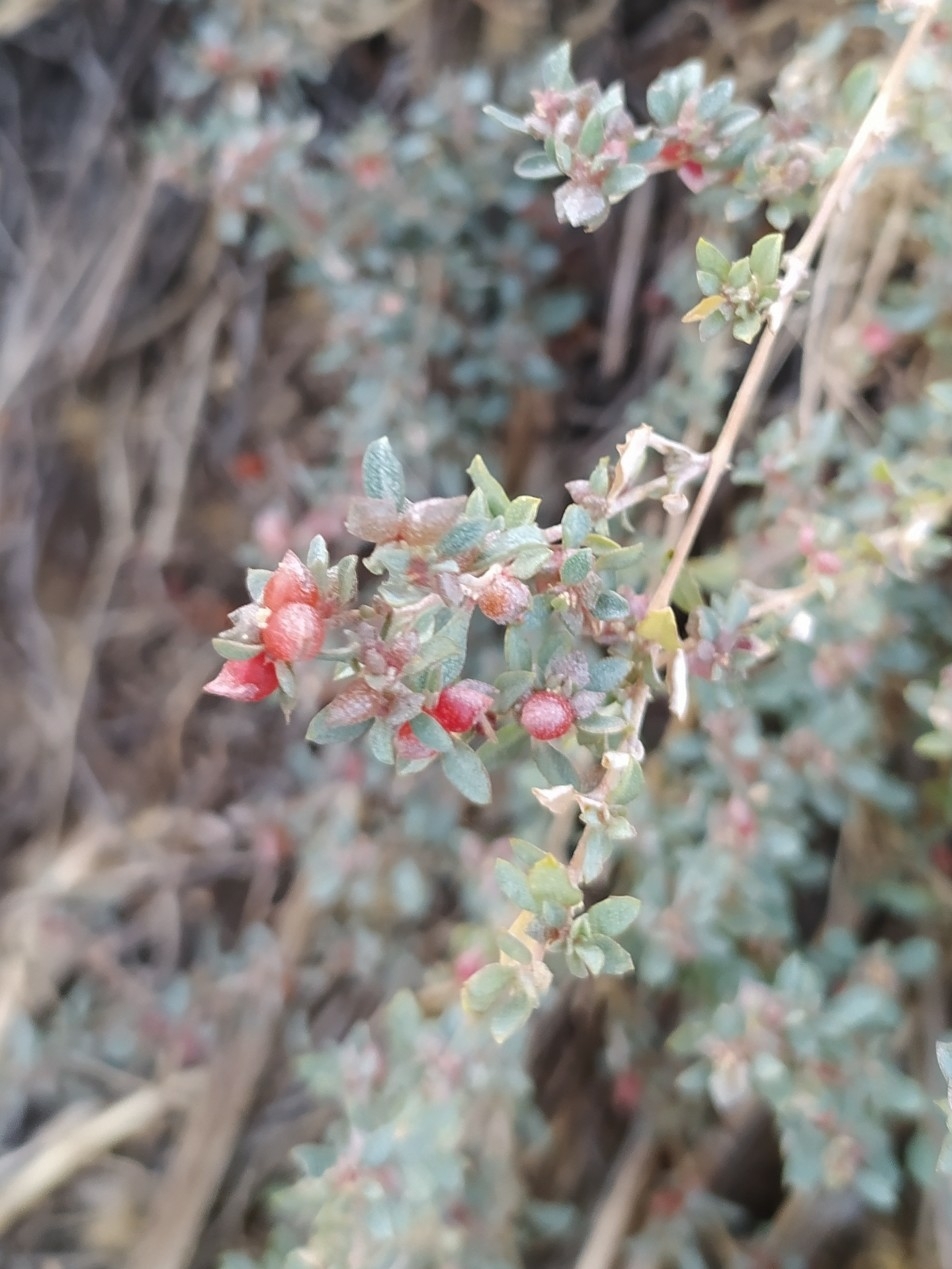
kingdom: Plantae
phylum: Tracheophyta
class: Magnoliopsida
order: Caryophyllales
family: Amaranthaceae
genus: Atriplex
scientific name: Atriplex semibaccata
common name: Australian saltbush
